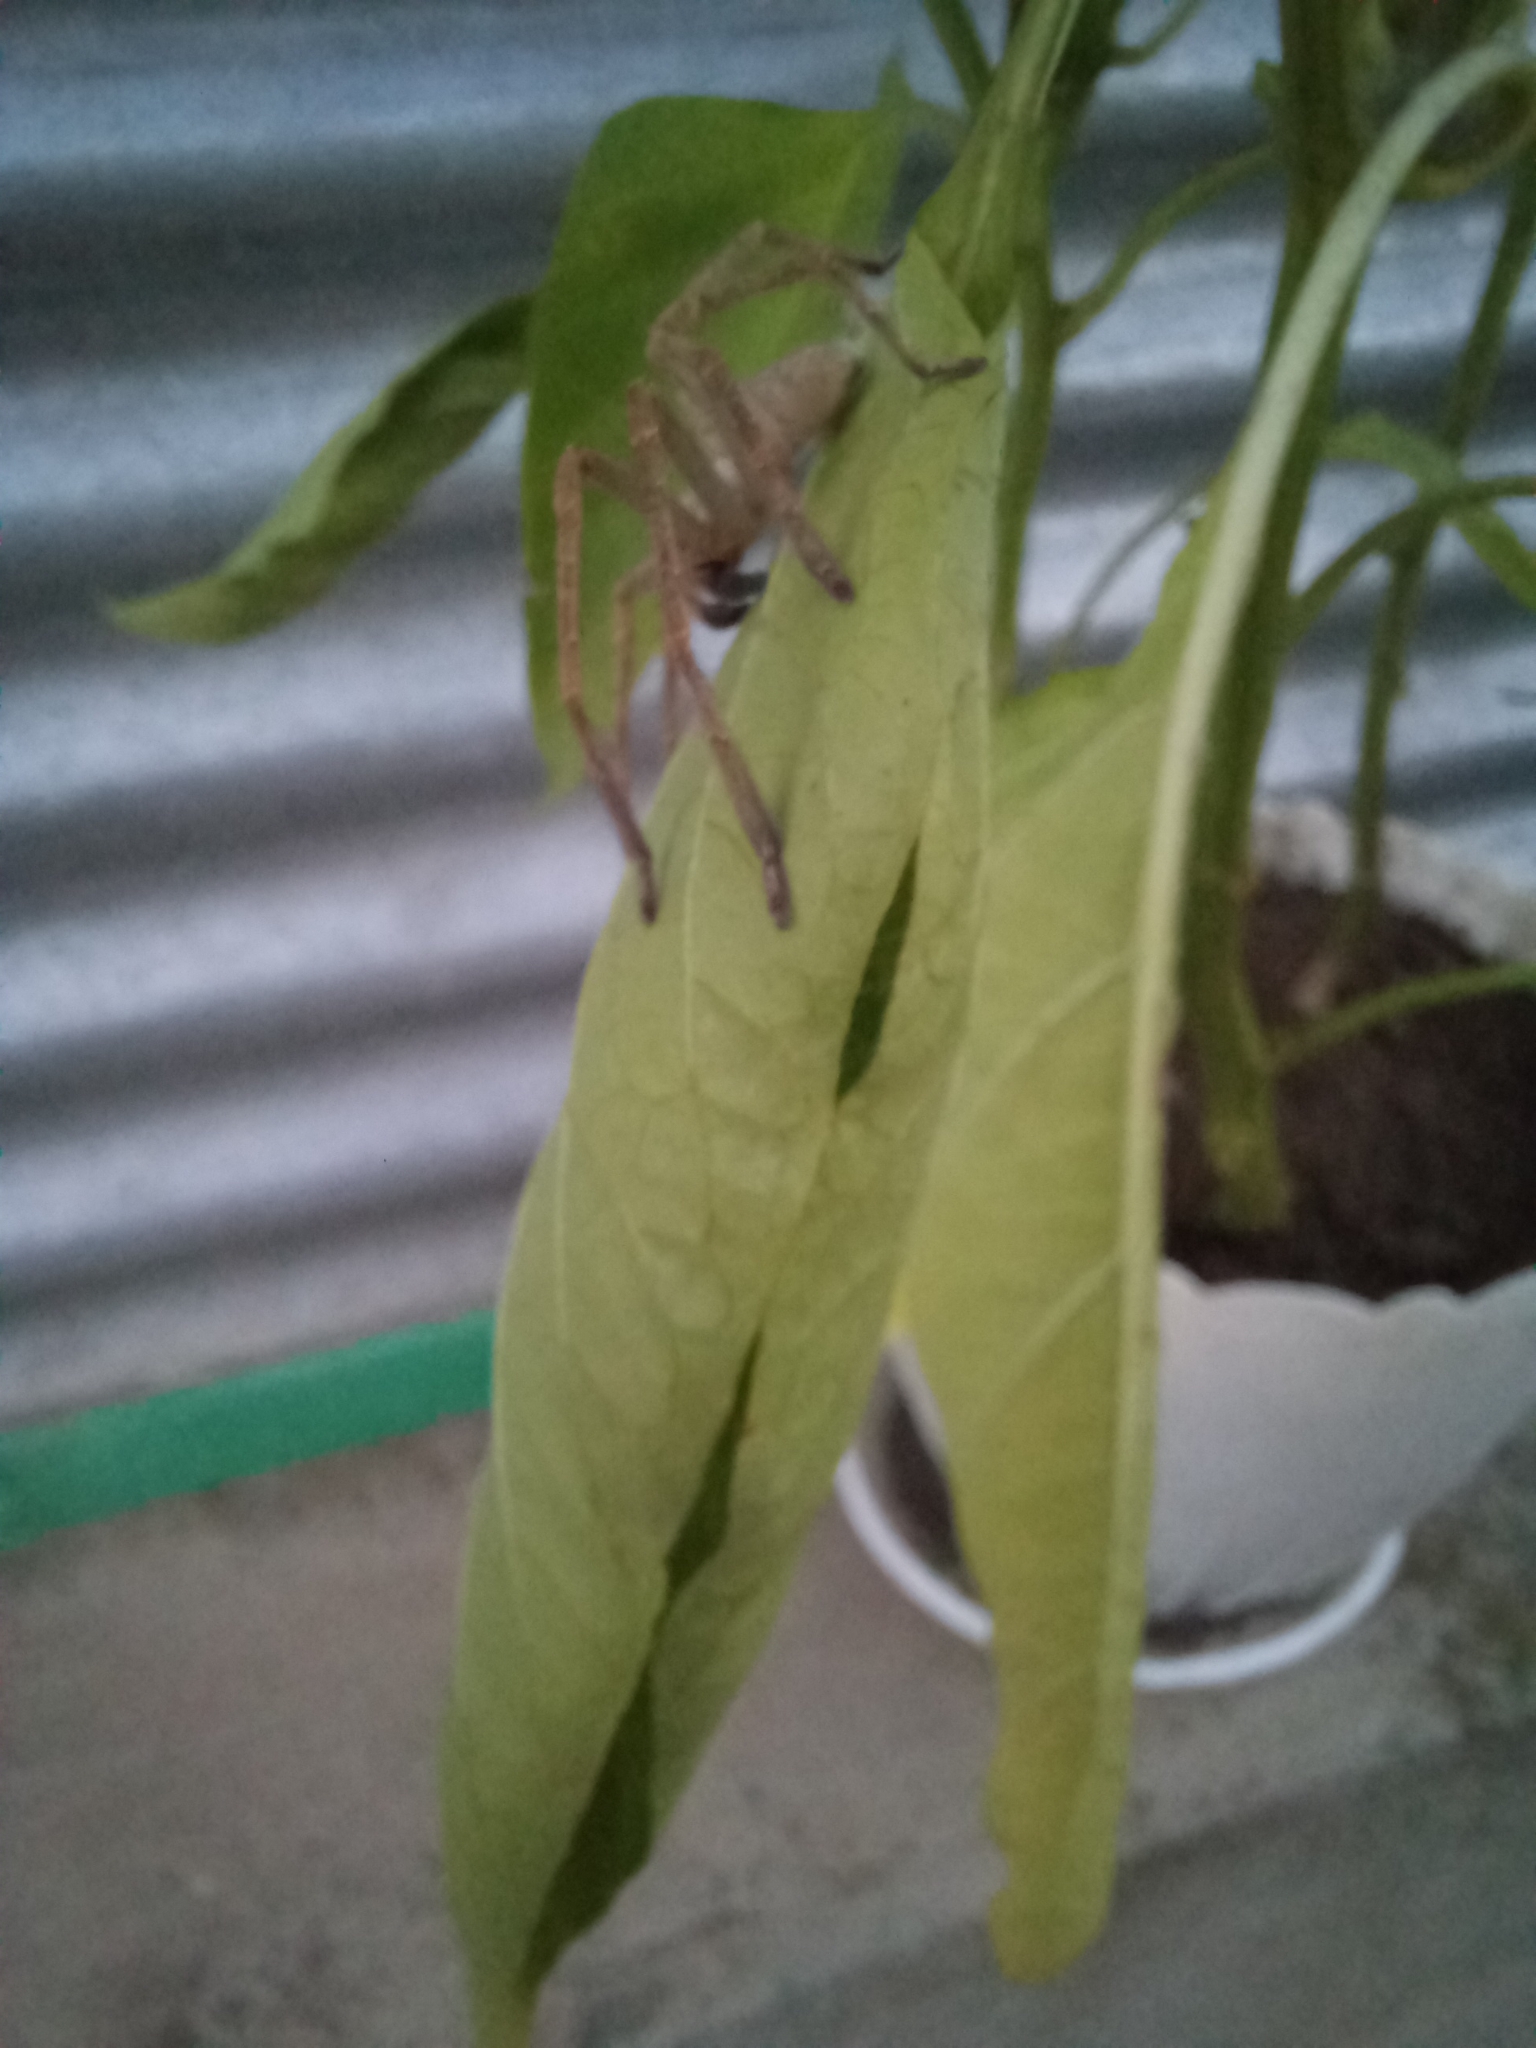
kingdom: Animalia
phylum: Arthropoda
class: Arachnida
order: Araneae
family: Sparassidae
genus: Olios
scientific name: Olios sericeus
